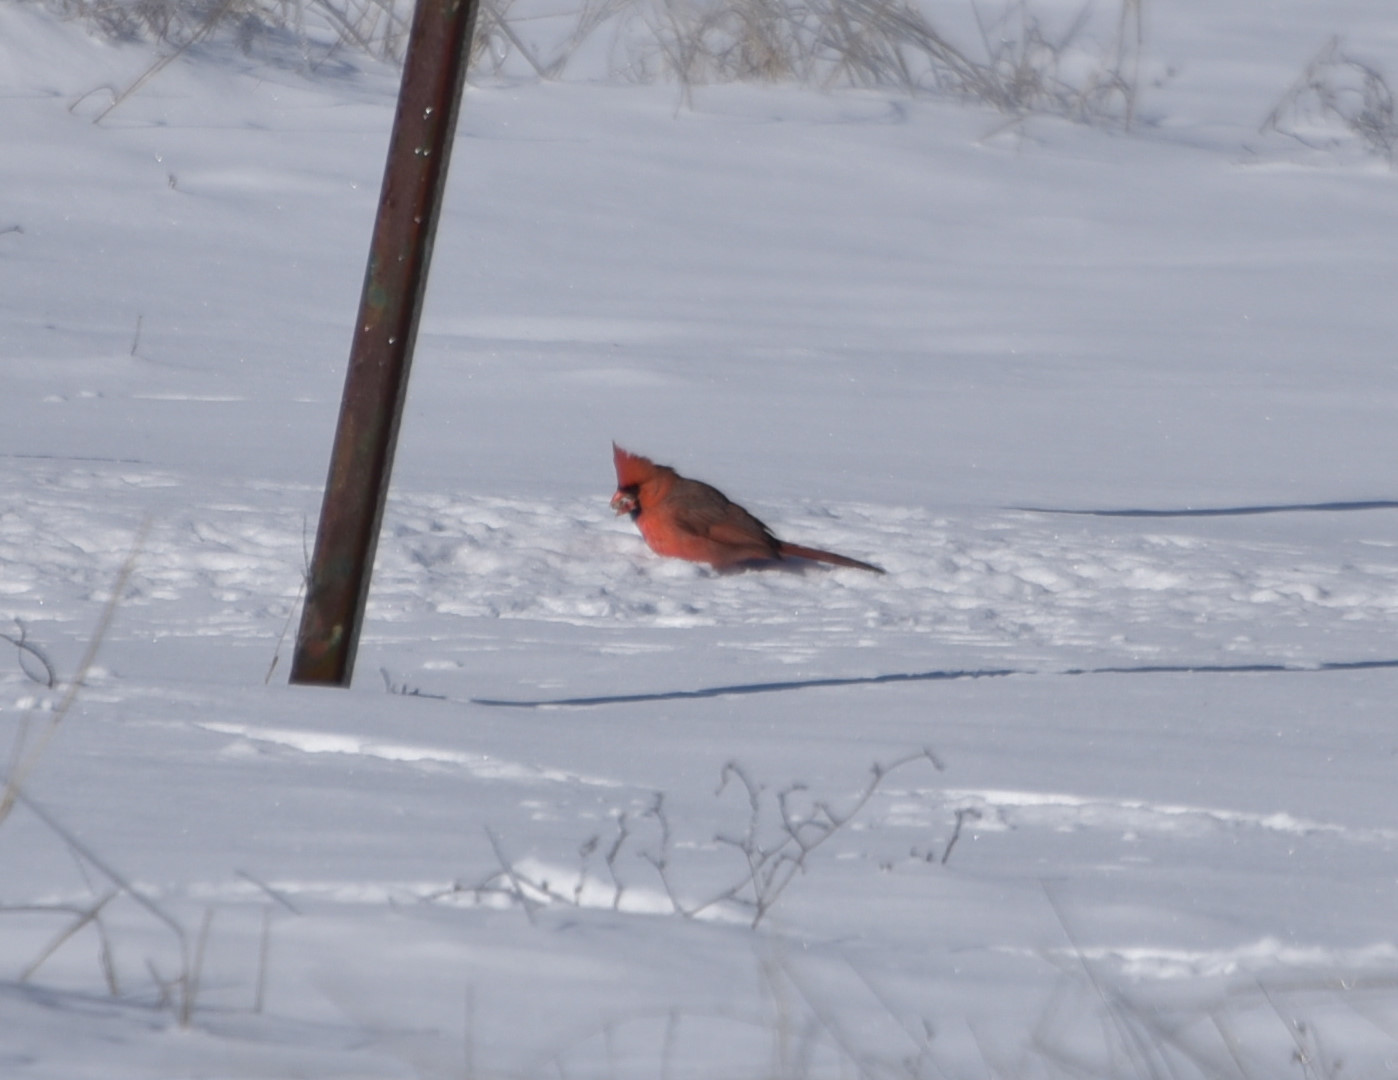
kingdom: Animalia
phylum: Chordata
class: Aves
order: Passeriformes
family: Cardinalidae
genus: Cardinalis
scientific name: Cardinalis cardinalis
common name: Northern cardinal
